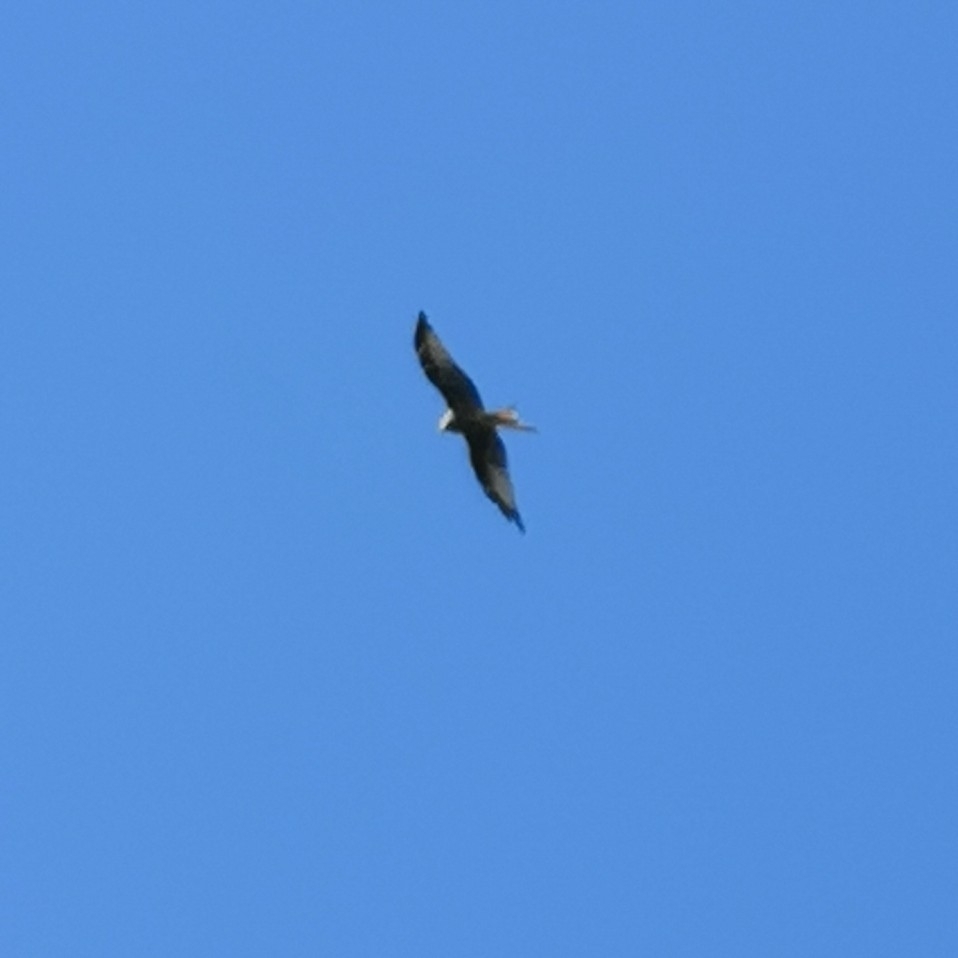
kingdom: Animalia
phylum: Chordata
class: Aves
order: Accipitriformes
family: Accipitridae
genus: Milvus
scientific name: Milvus milvus
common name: Red kite
